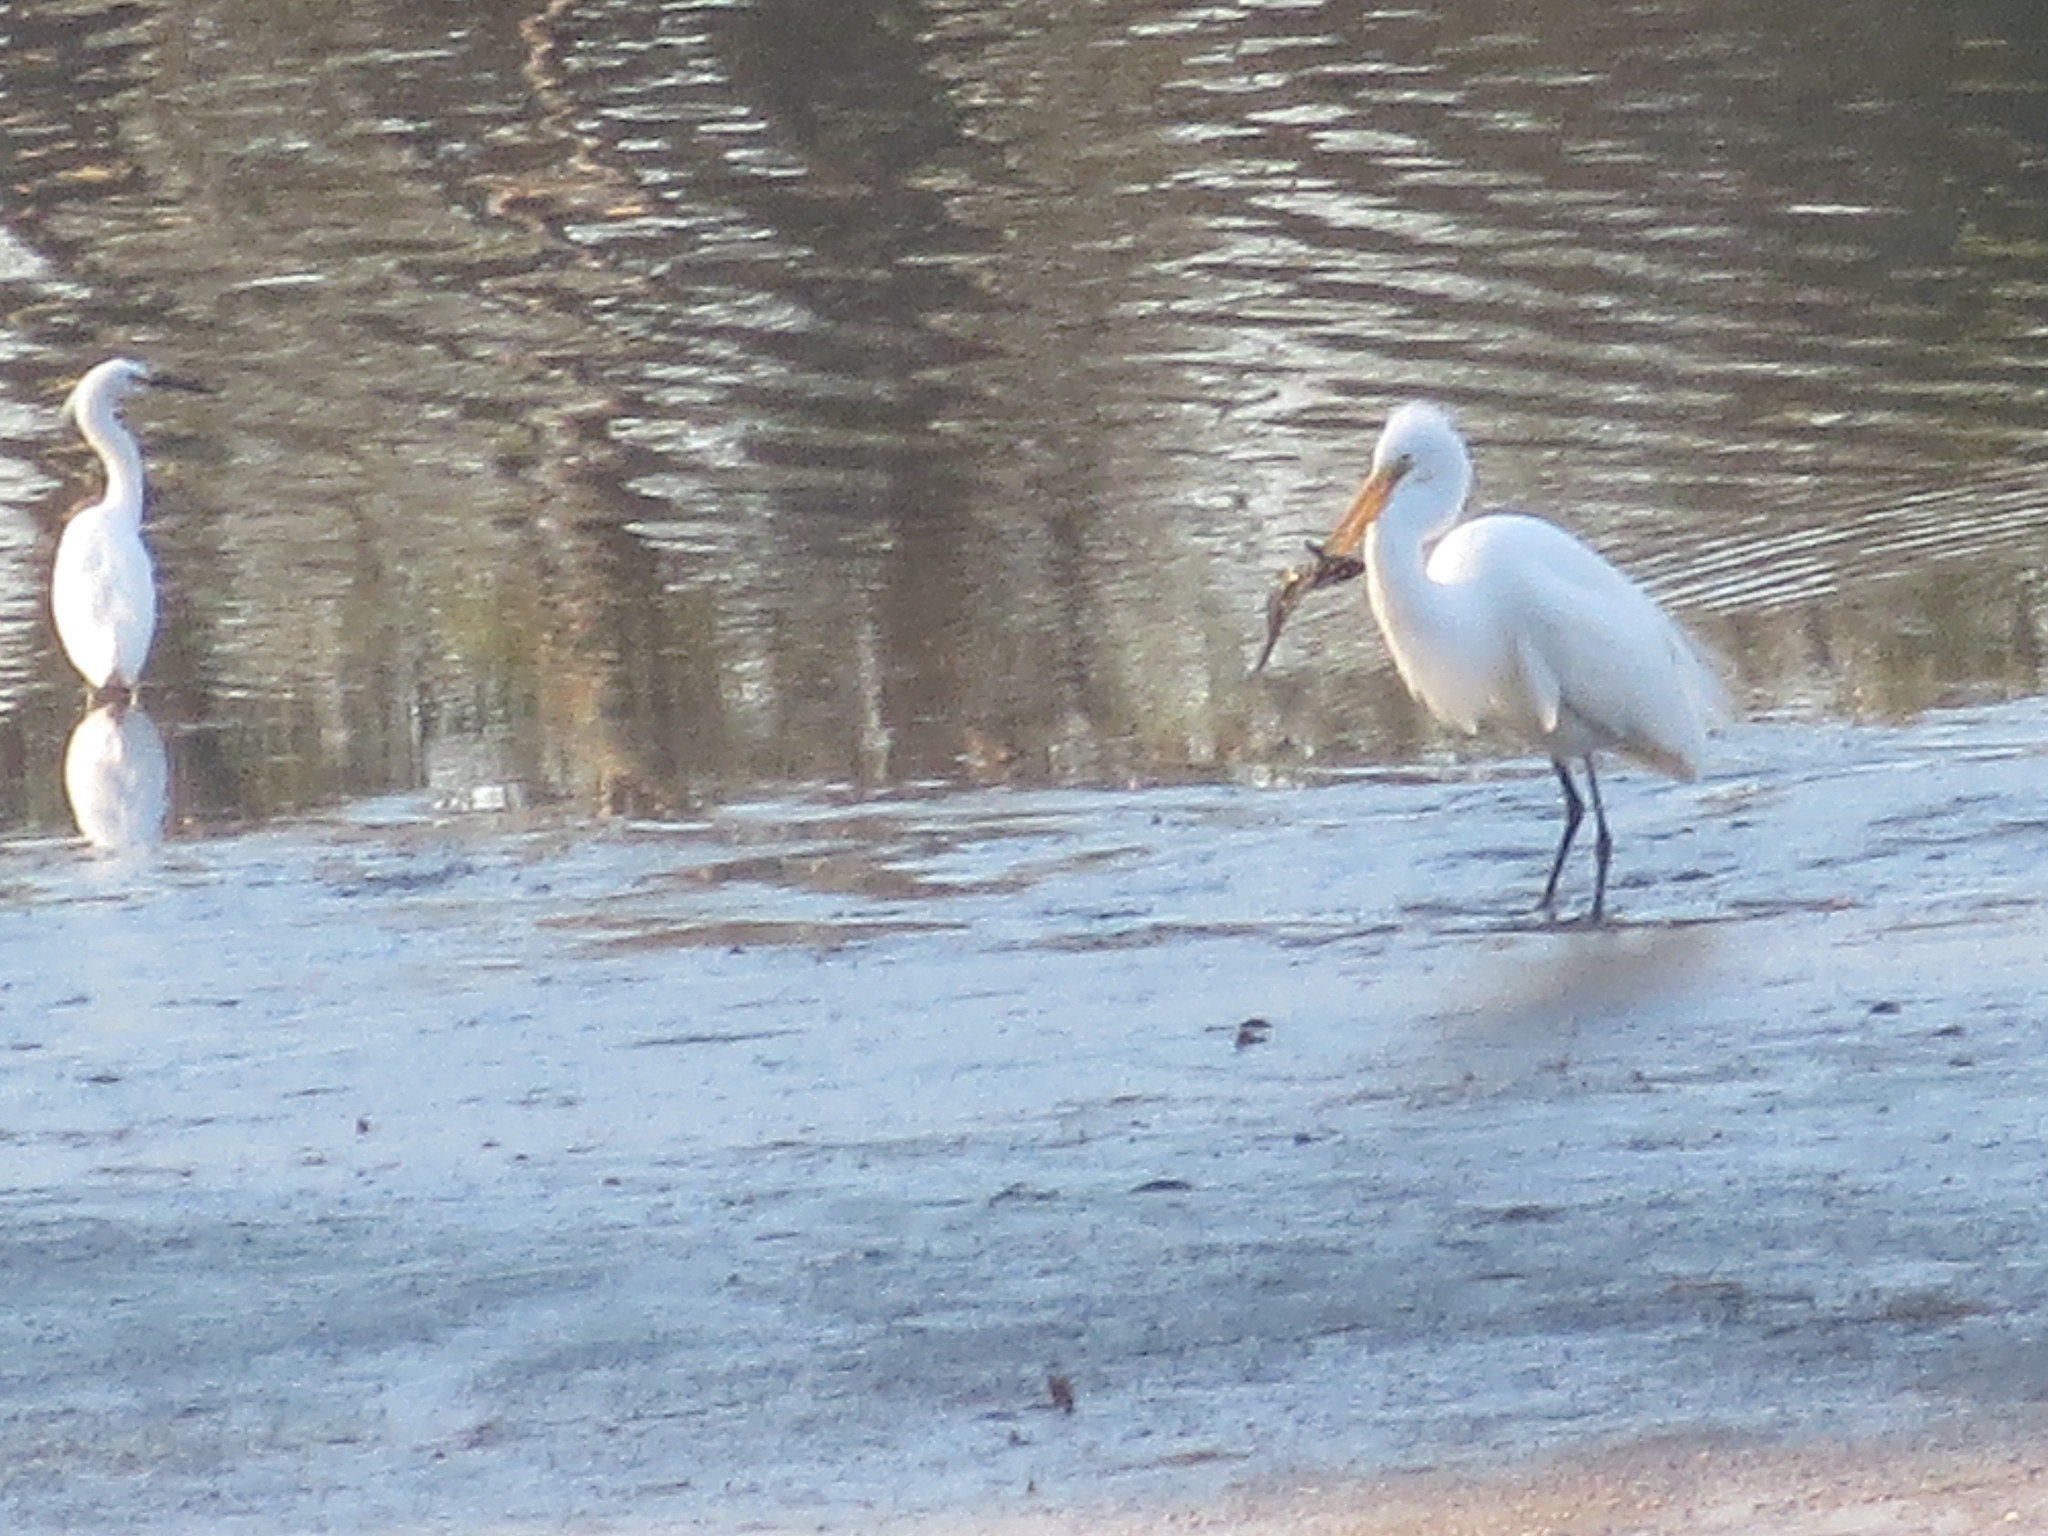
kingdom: Animalia
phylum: Chordata
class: Aves
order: Pelecaniformes
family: Ardeidae
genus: Ardea
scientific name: Ardea alba
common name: Great egret
